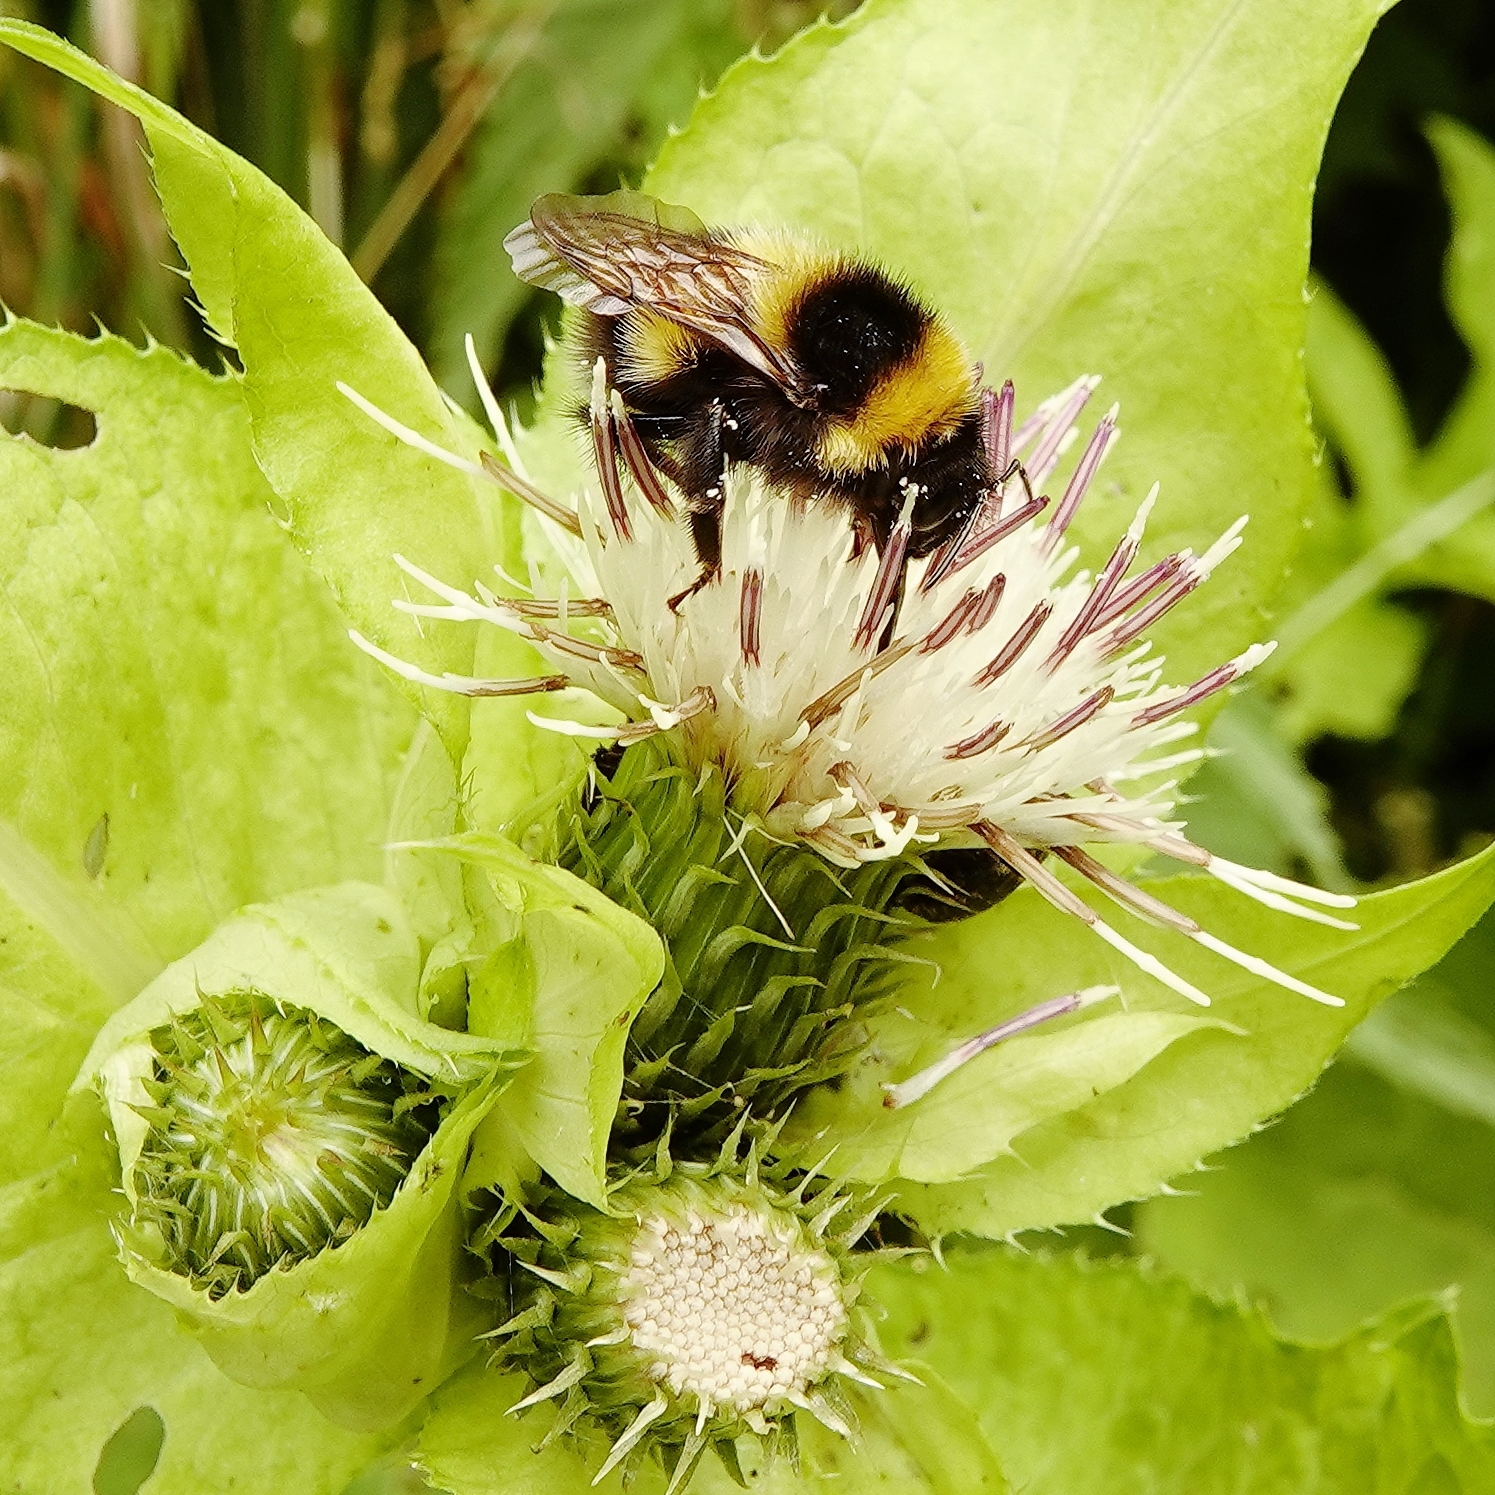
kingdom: Animalia
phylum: Arthropoda
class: Insecta
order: Hymenoptera
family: Apidae
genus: Bombus
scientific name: Bombus hortorum
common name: Garden bumblebee
